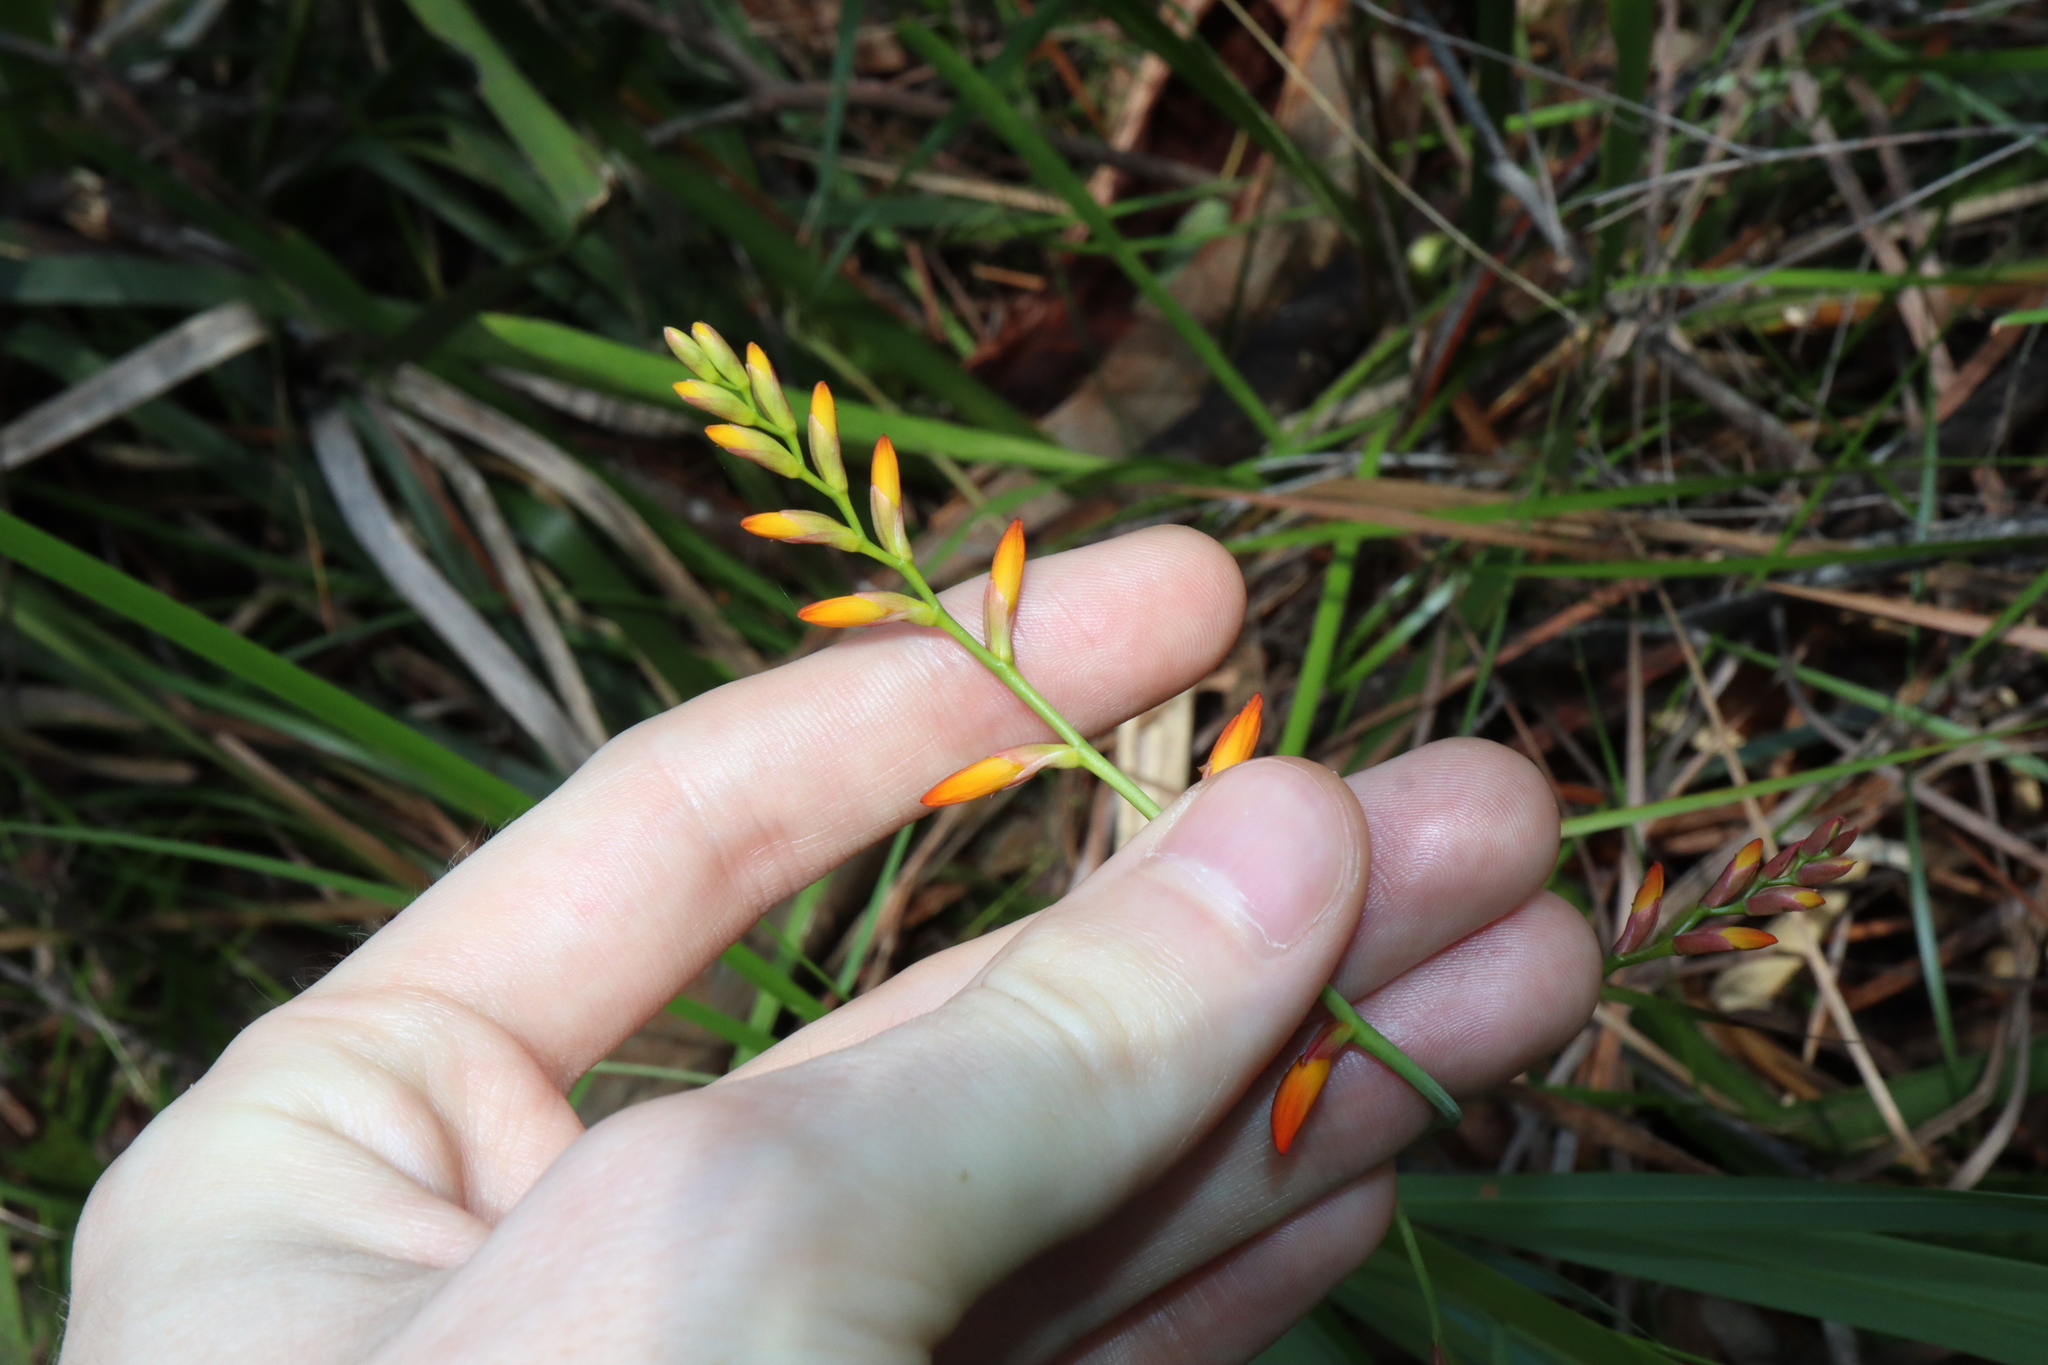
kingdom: Plantae
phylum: Tracheophyta
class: Liliopsida
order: Asparagales
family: Iridaceae
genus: Crocosmia
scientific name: Crocosmia crocosmiiflora
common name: Montbretia
